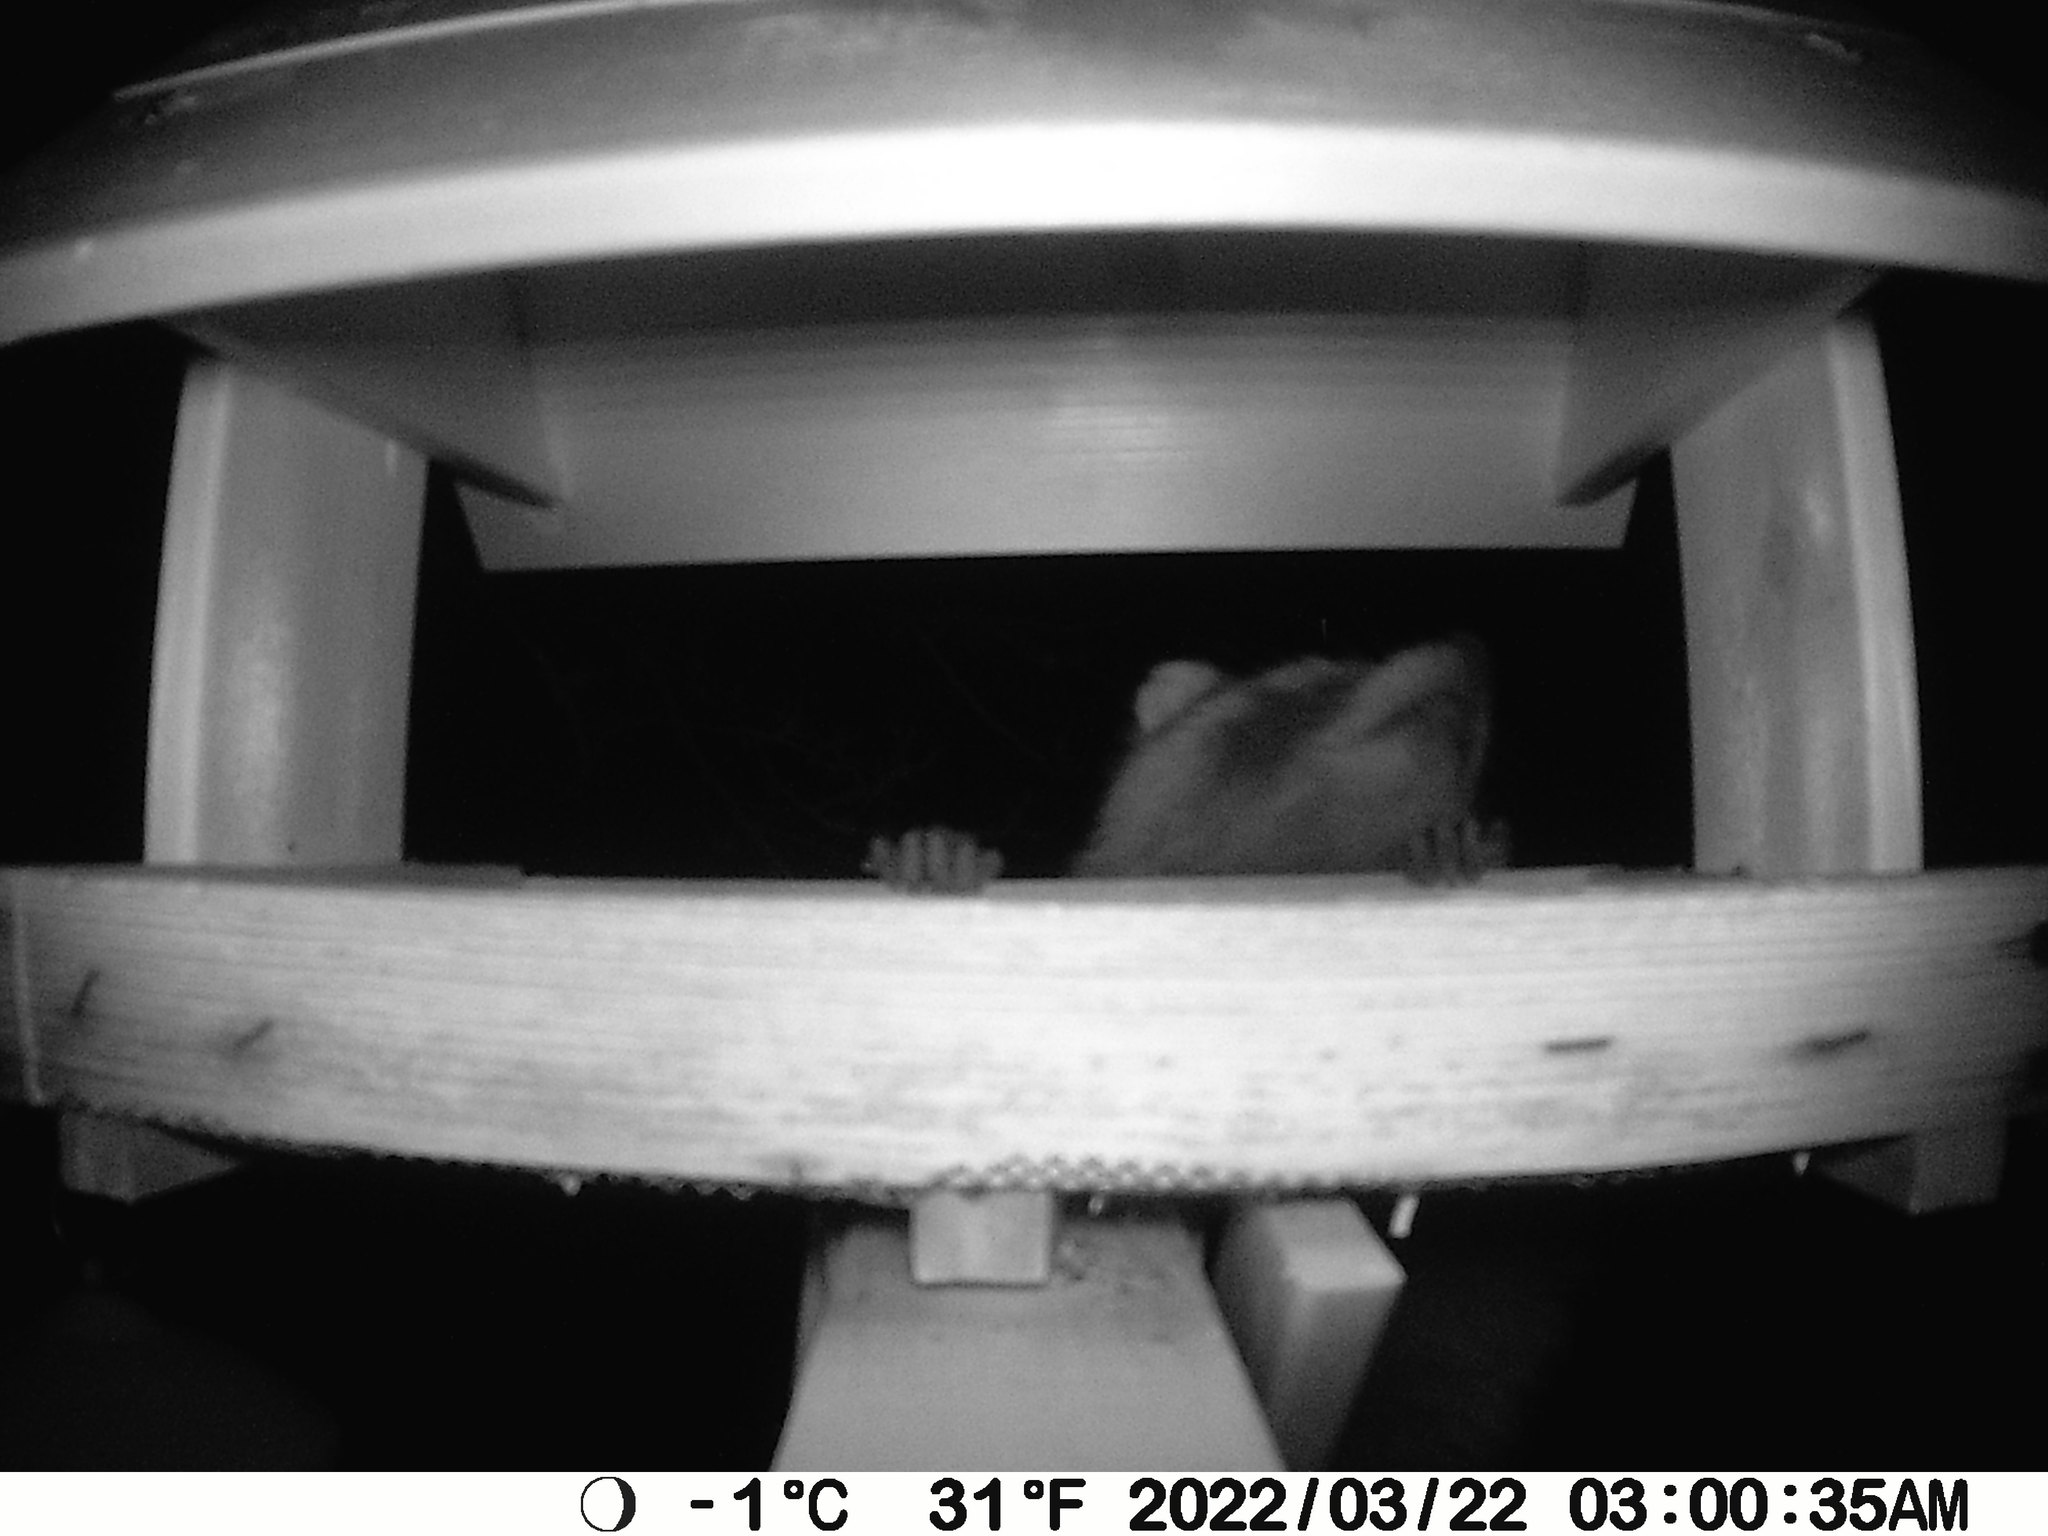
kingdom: Animalia
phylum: Chordata
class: Mammalia
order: Carnivora
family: Procyonidae
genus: Procyon
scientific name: Procyon lotor
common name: Raccoon
